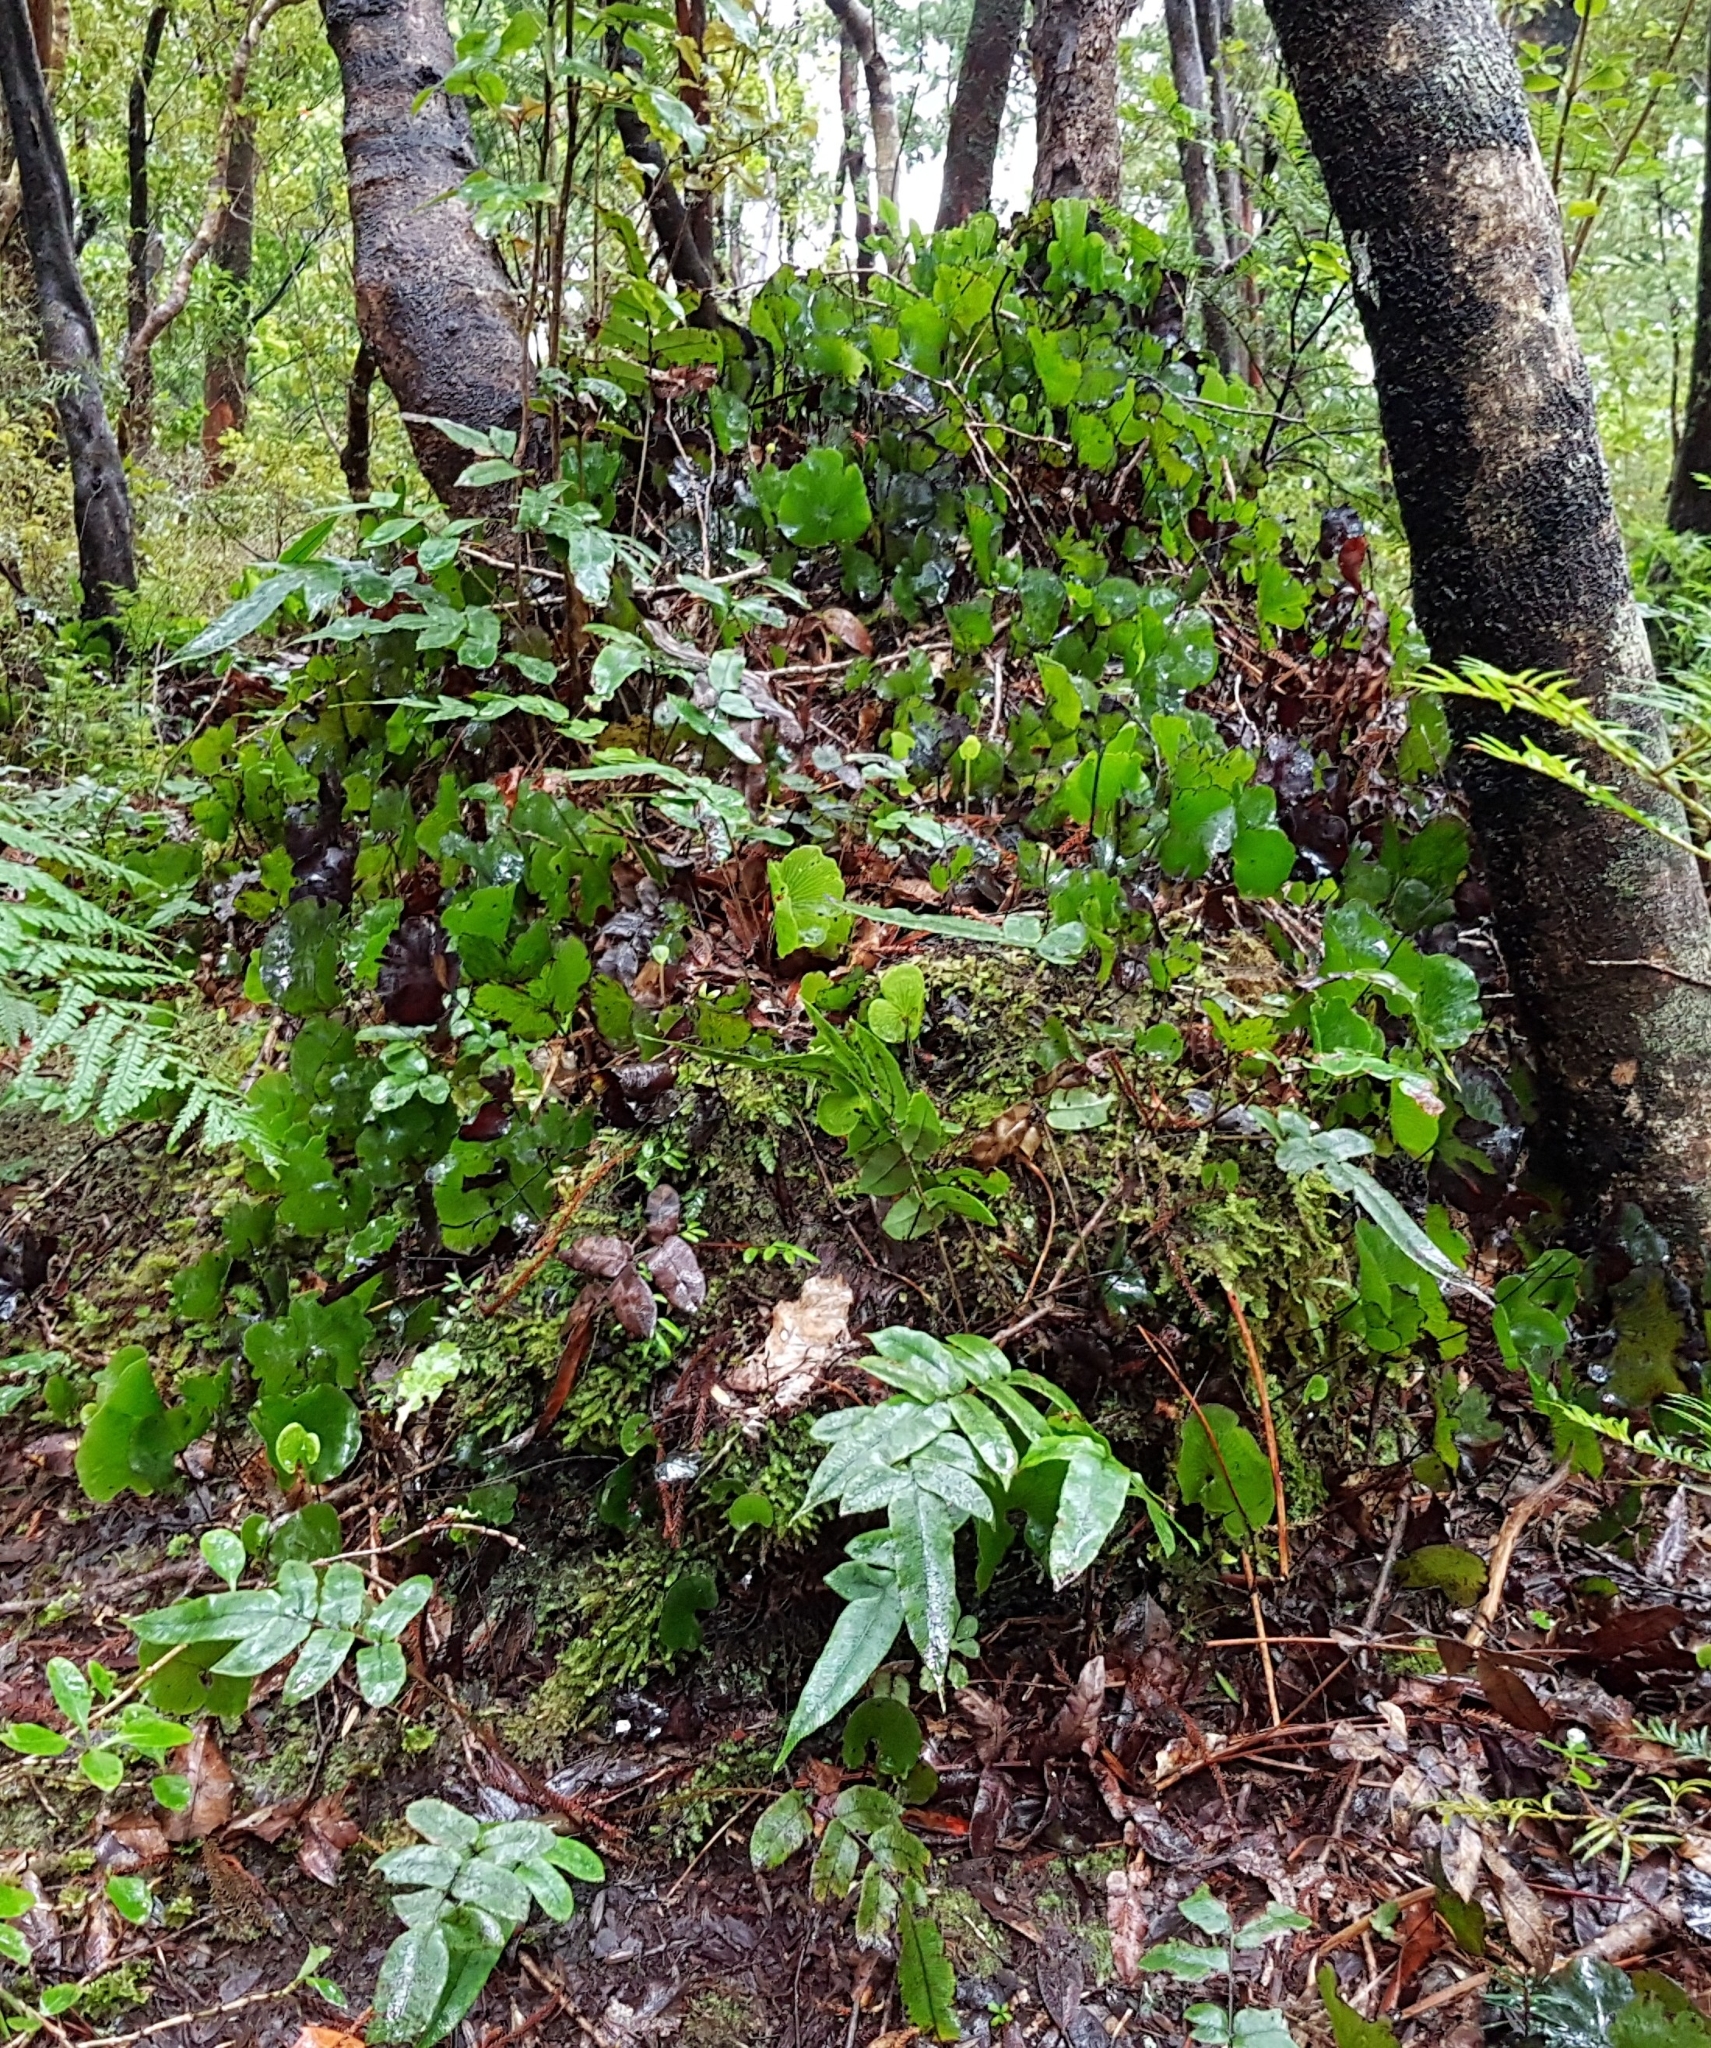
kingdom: Plantae
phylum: Tracheophyta
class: Polypodiopsida
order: Hymenophyllales
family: Hymenophyllaceae
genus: Hymenophyllum
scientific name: Hymenophyllum nephrophyllum
